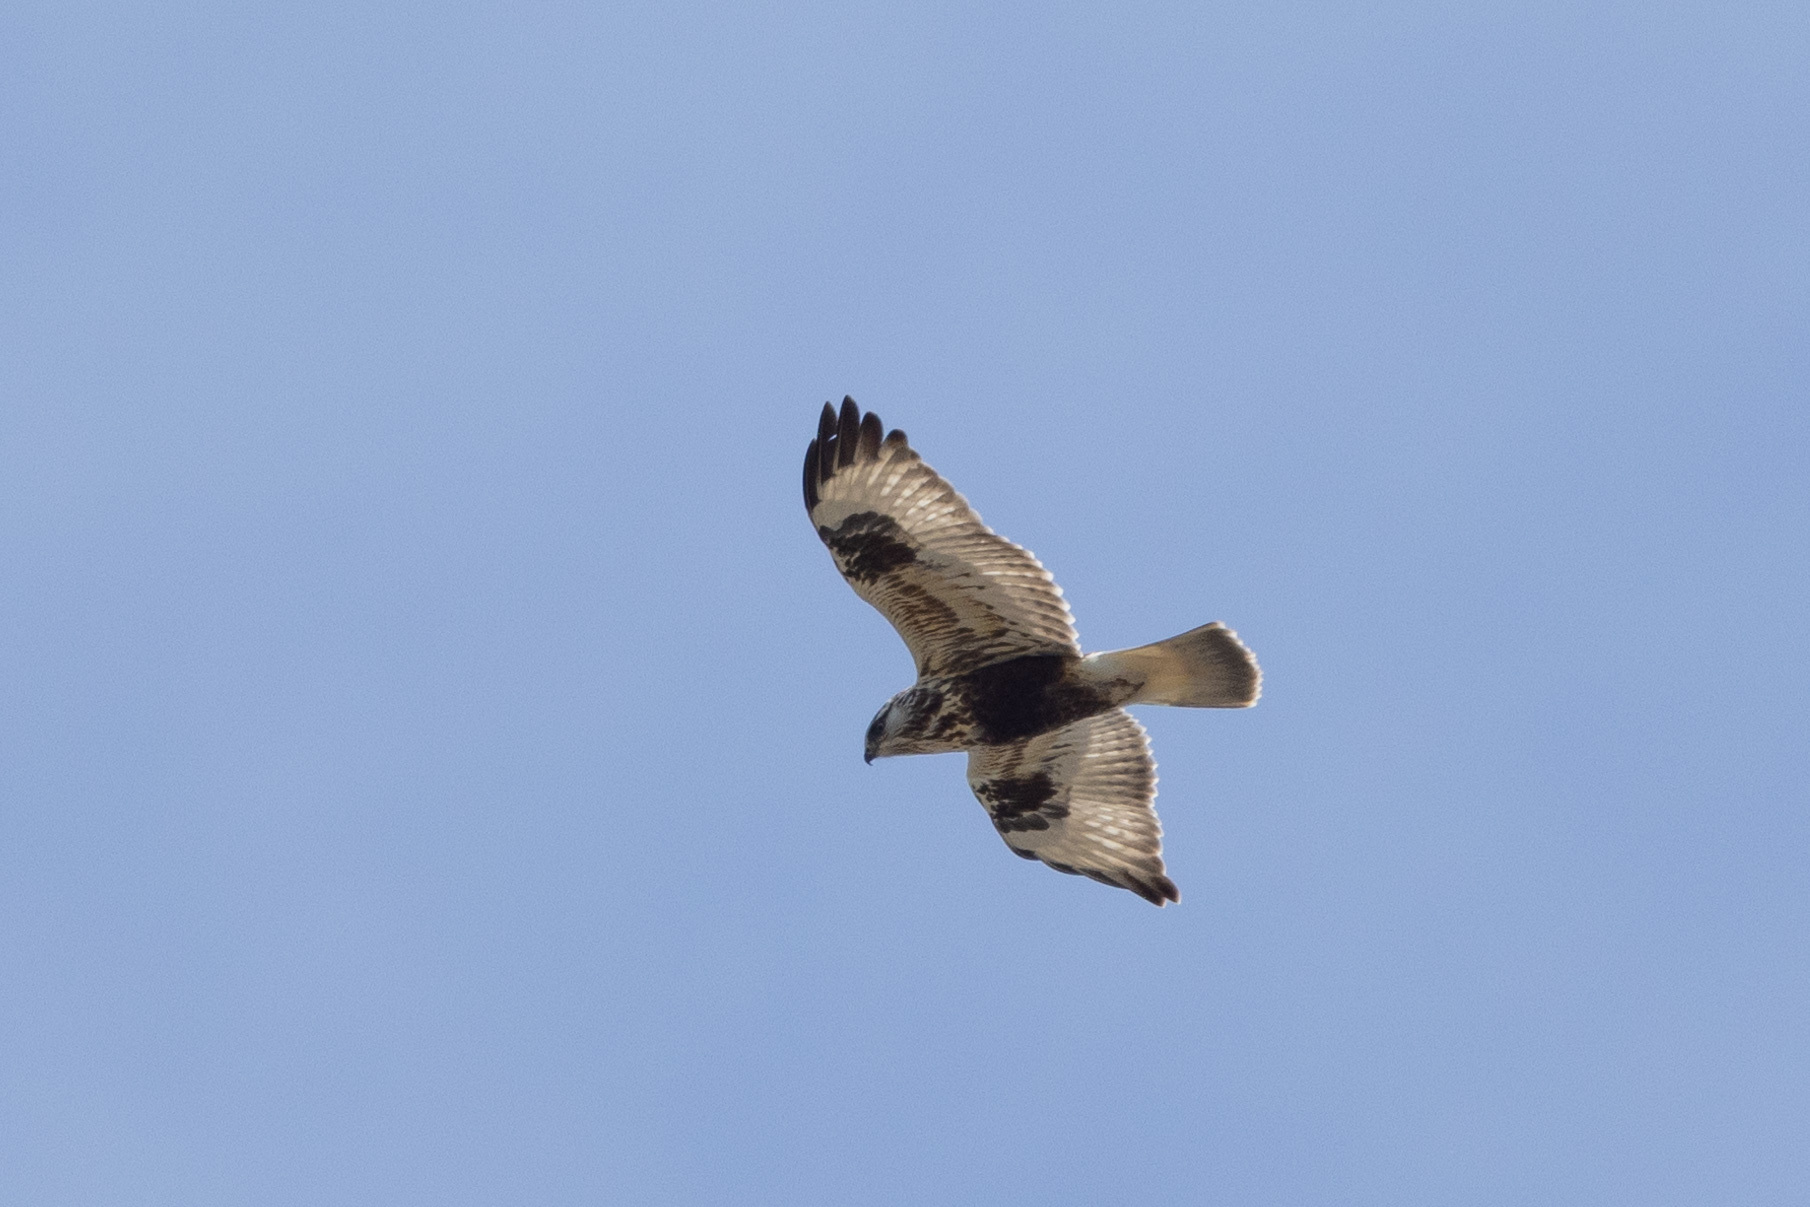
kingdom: Animalia
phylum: Chordata
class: Aves
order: Accipitriformes
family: Accipitridae
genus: Buteo
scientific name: Buteo lagopus
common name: Rough-legged buzzard
